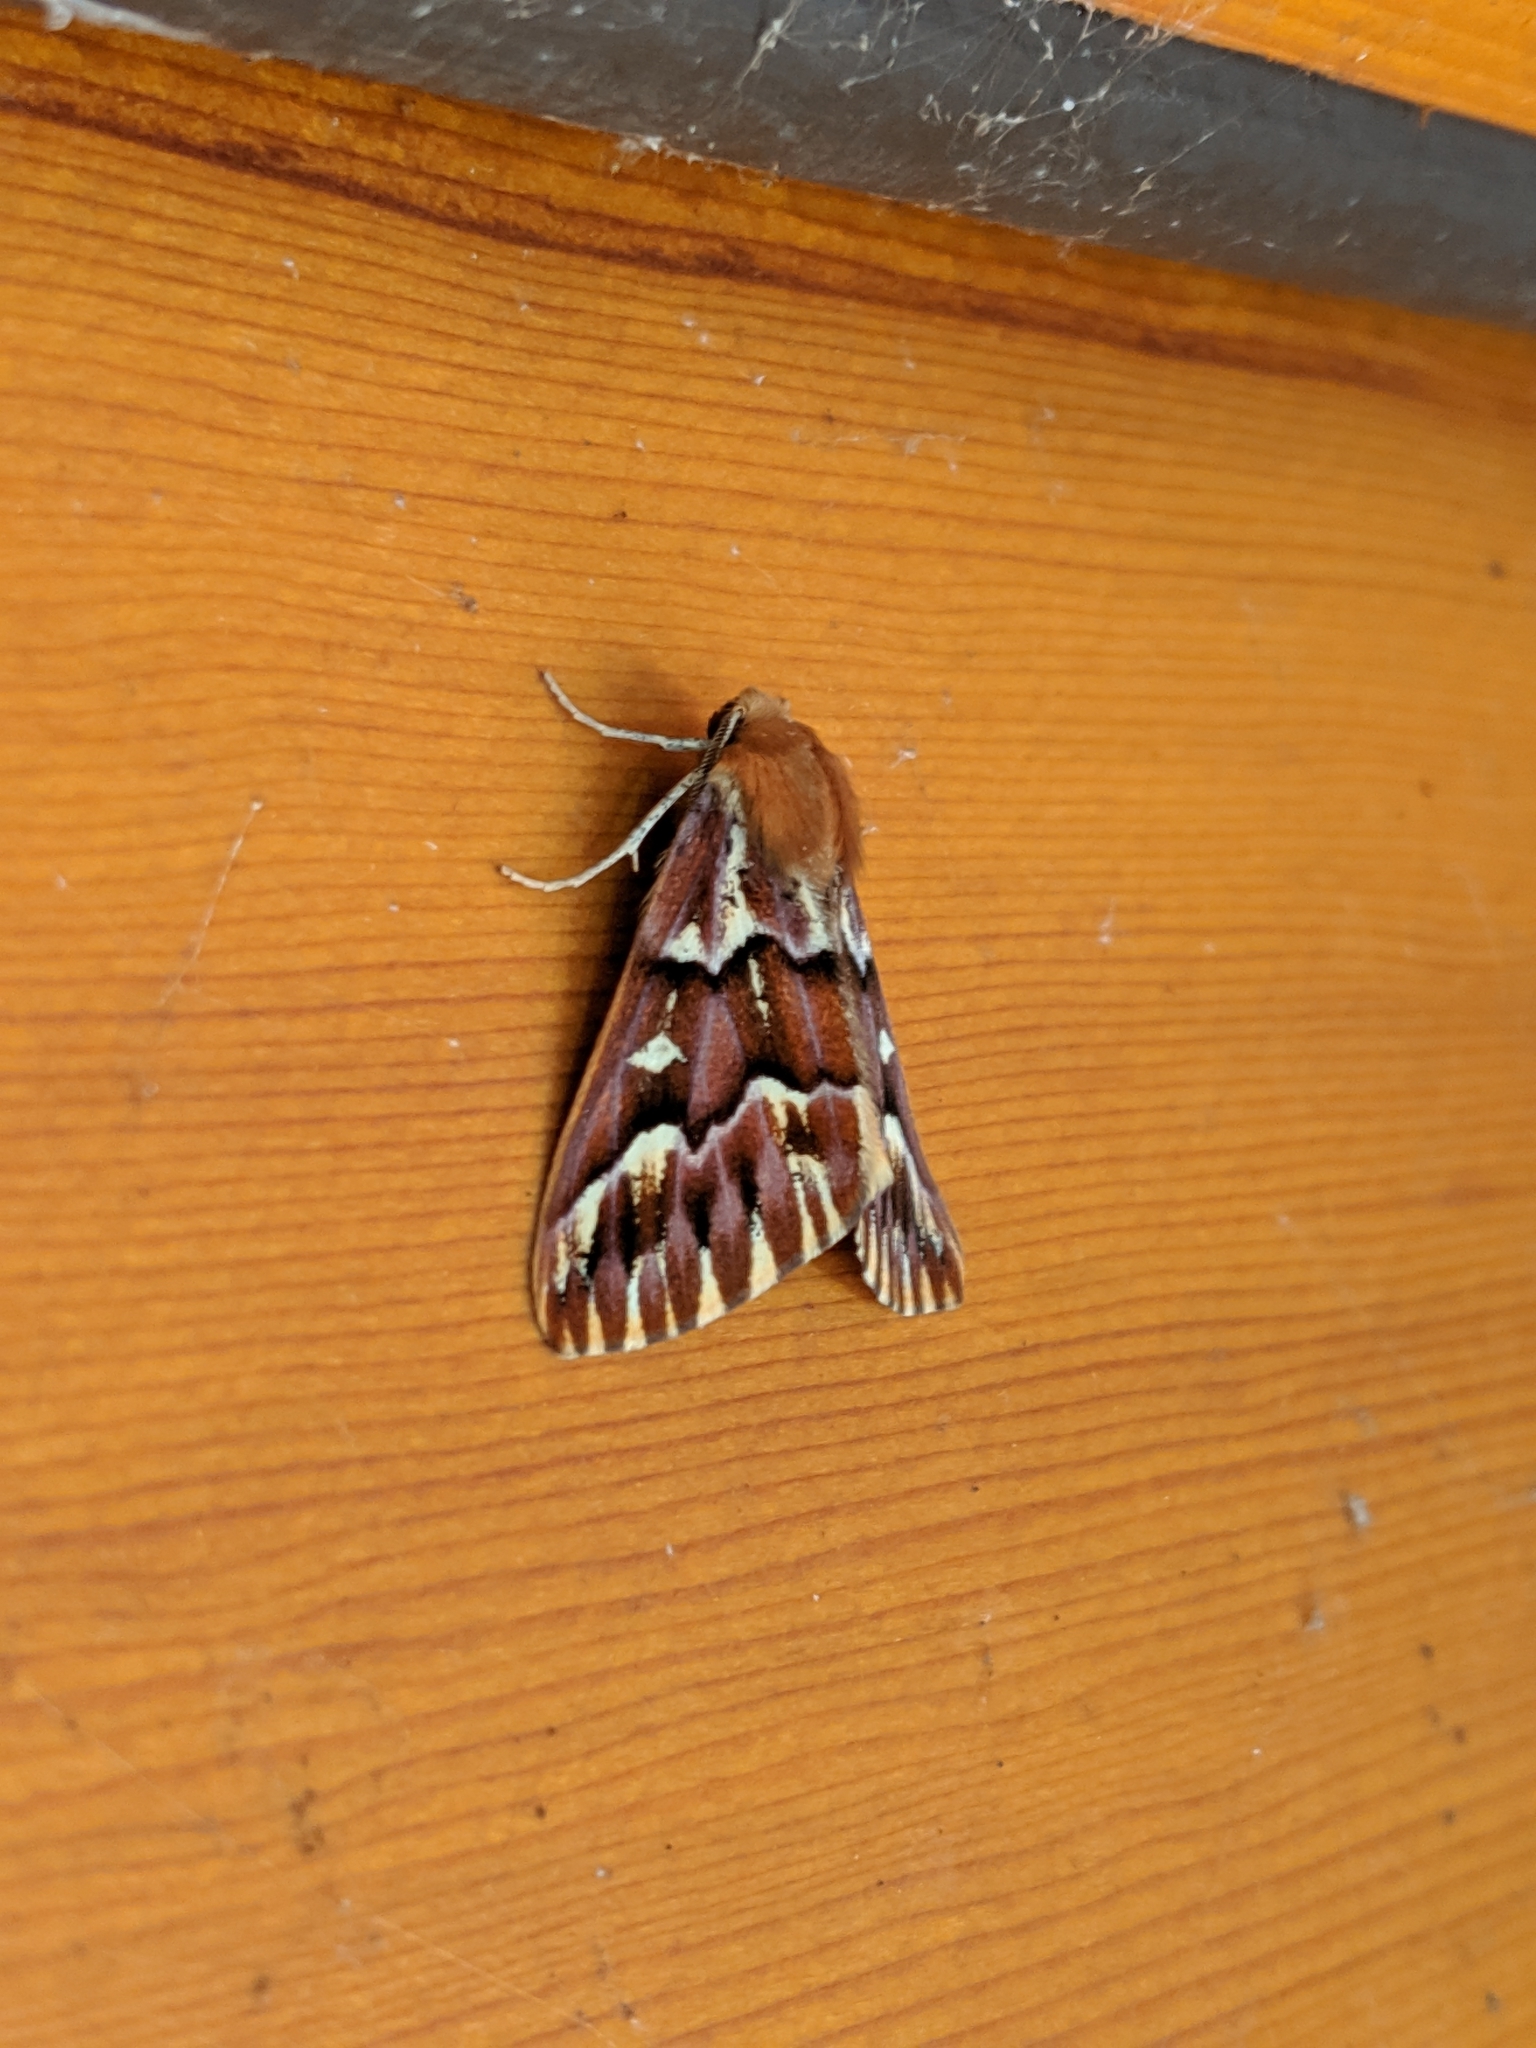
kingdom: Animalia
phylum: Arthropoda
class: Insecta
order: Lepidoptera
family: Geometridae
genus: Caripeta
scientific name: Caripeta aequaliaria
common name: Red girdle moth
